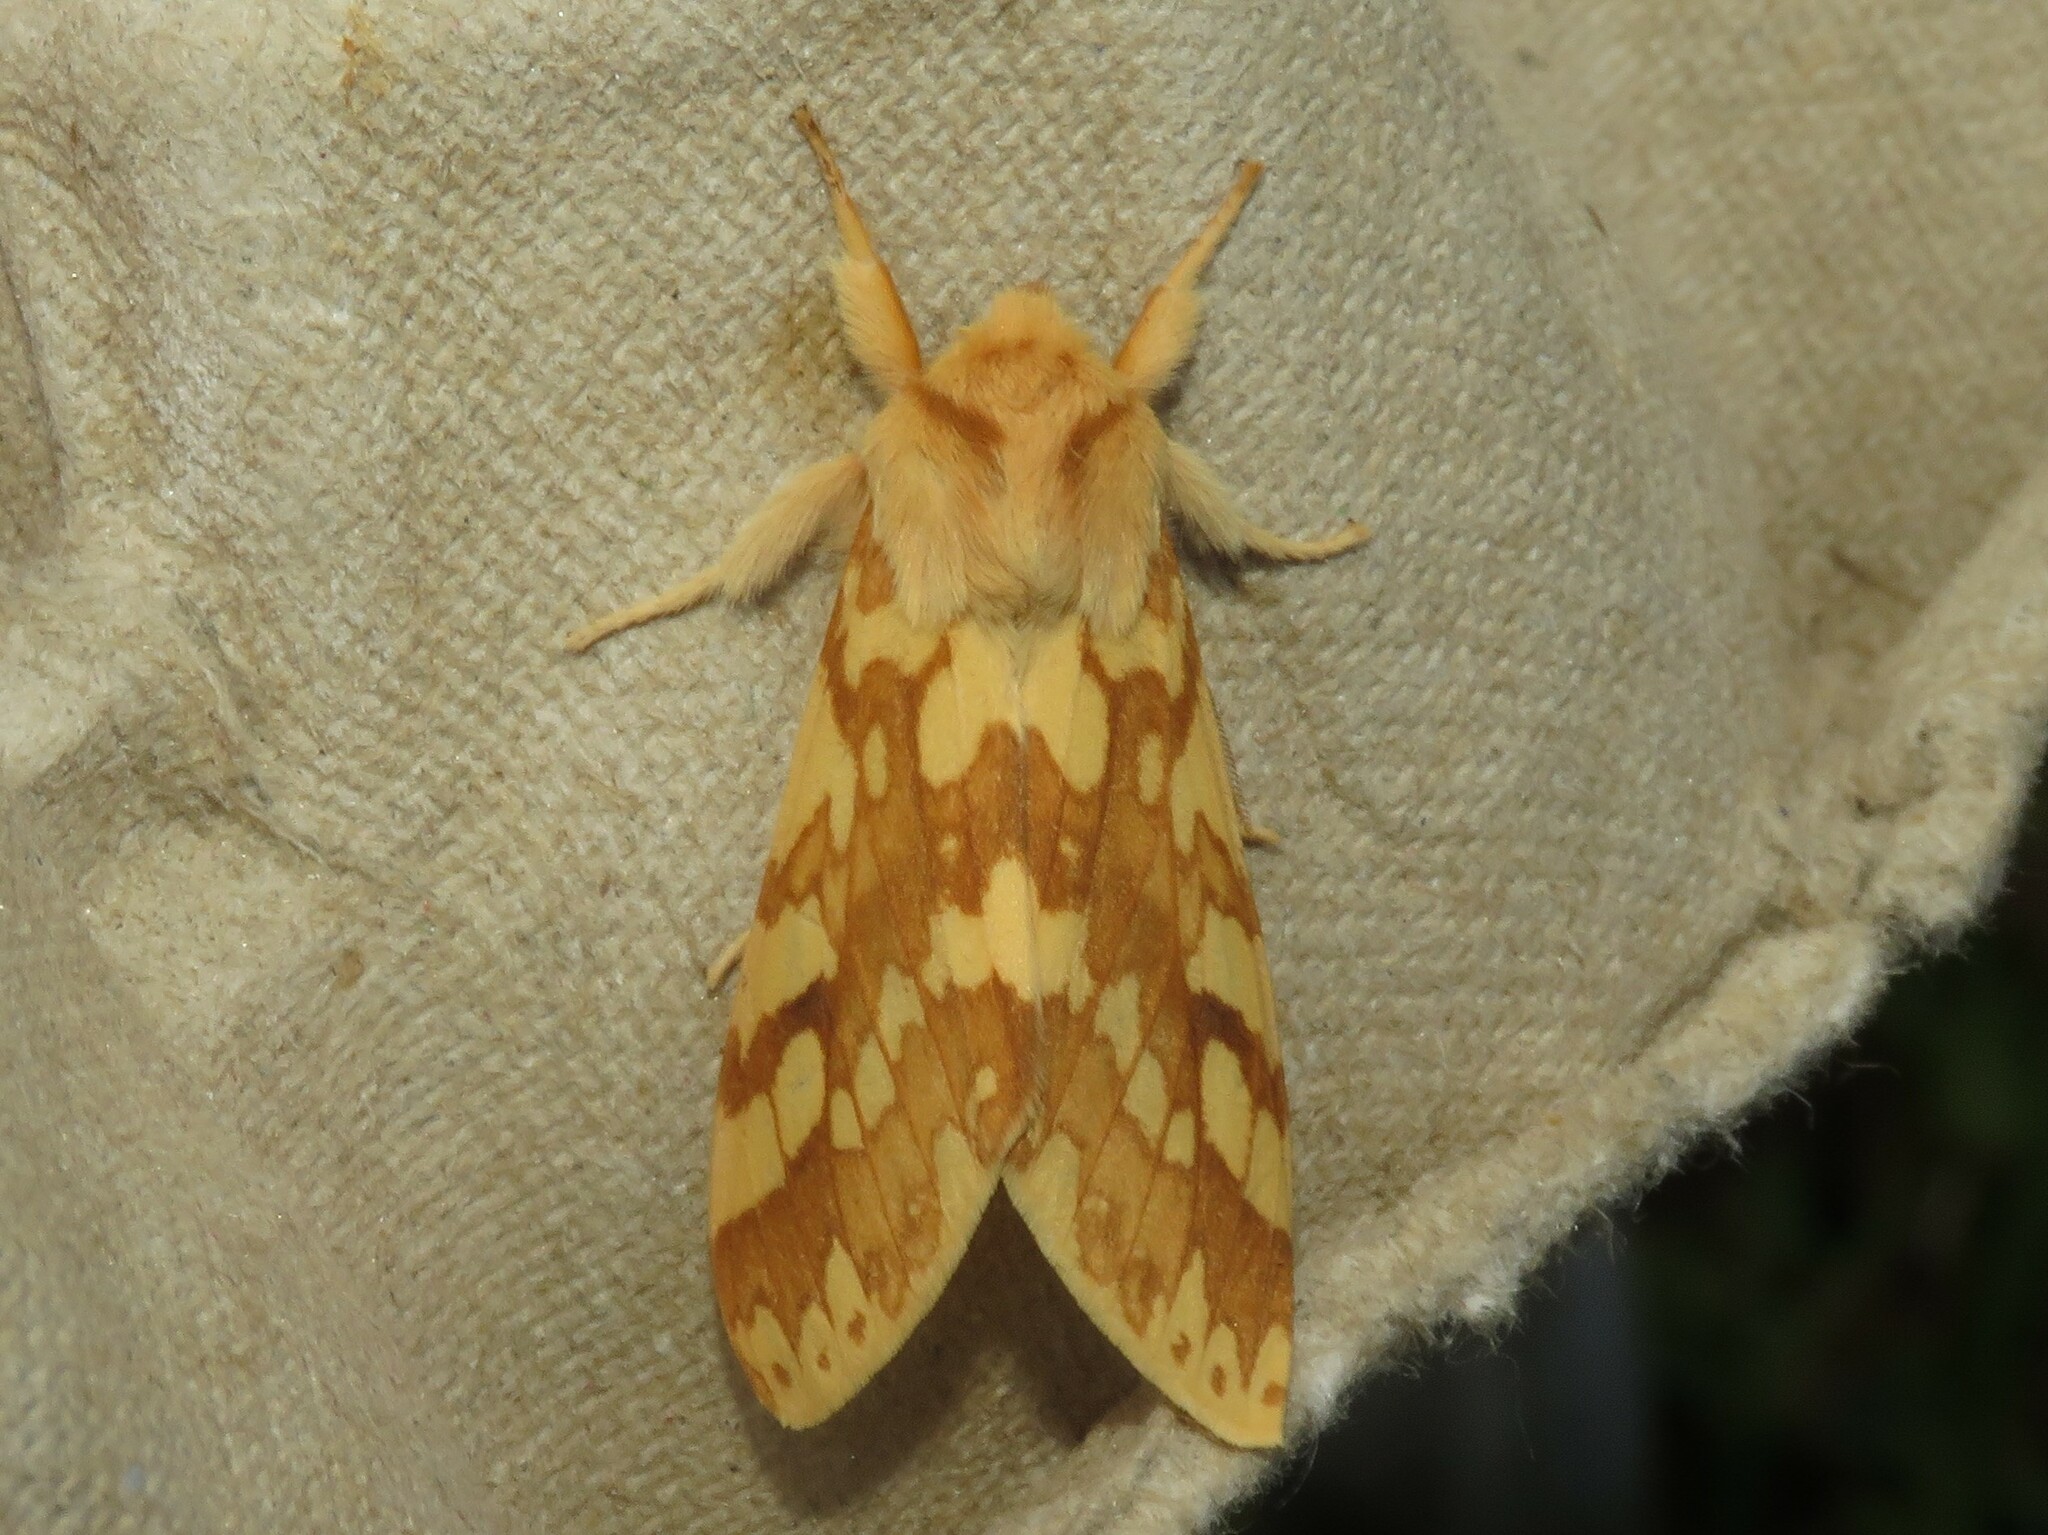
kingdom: Animalia
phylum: Arthropoda
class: Insecta
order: Lepidoptera
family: Erebidae
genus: Lophocampa
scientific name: Lophocampa maculata
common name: Spotted tussock moth
